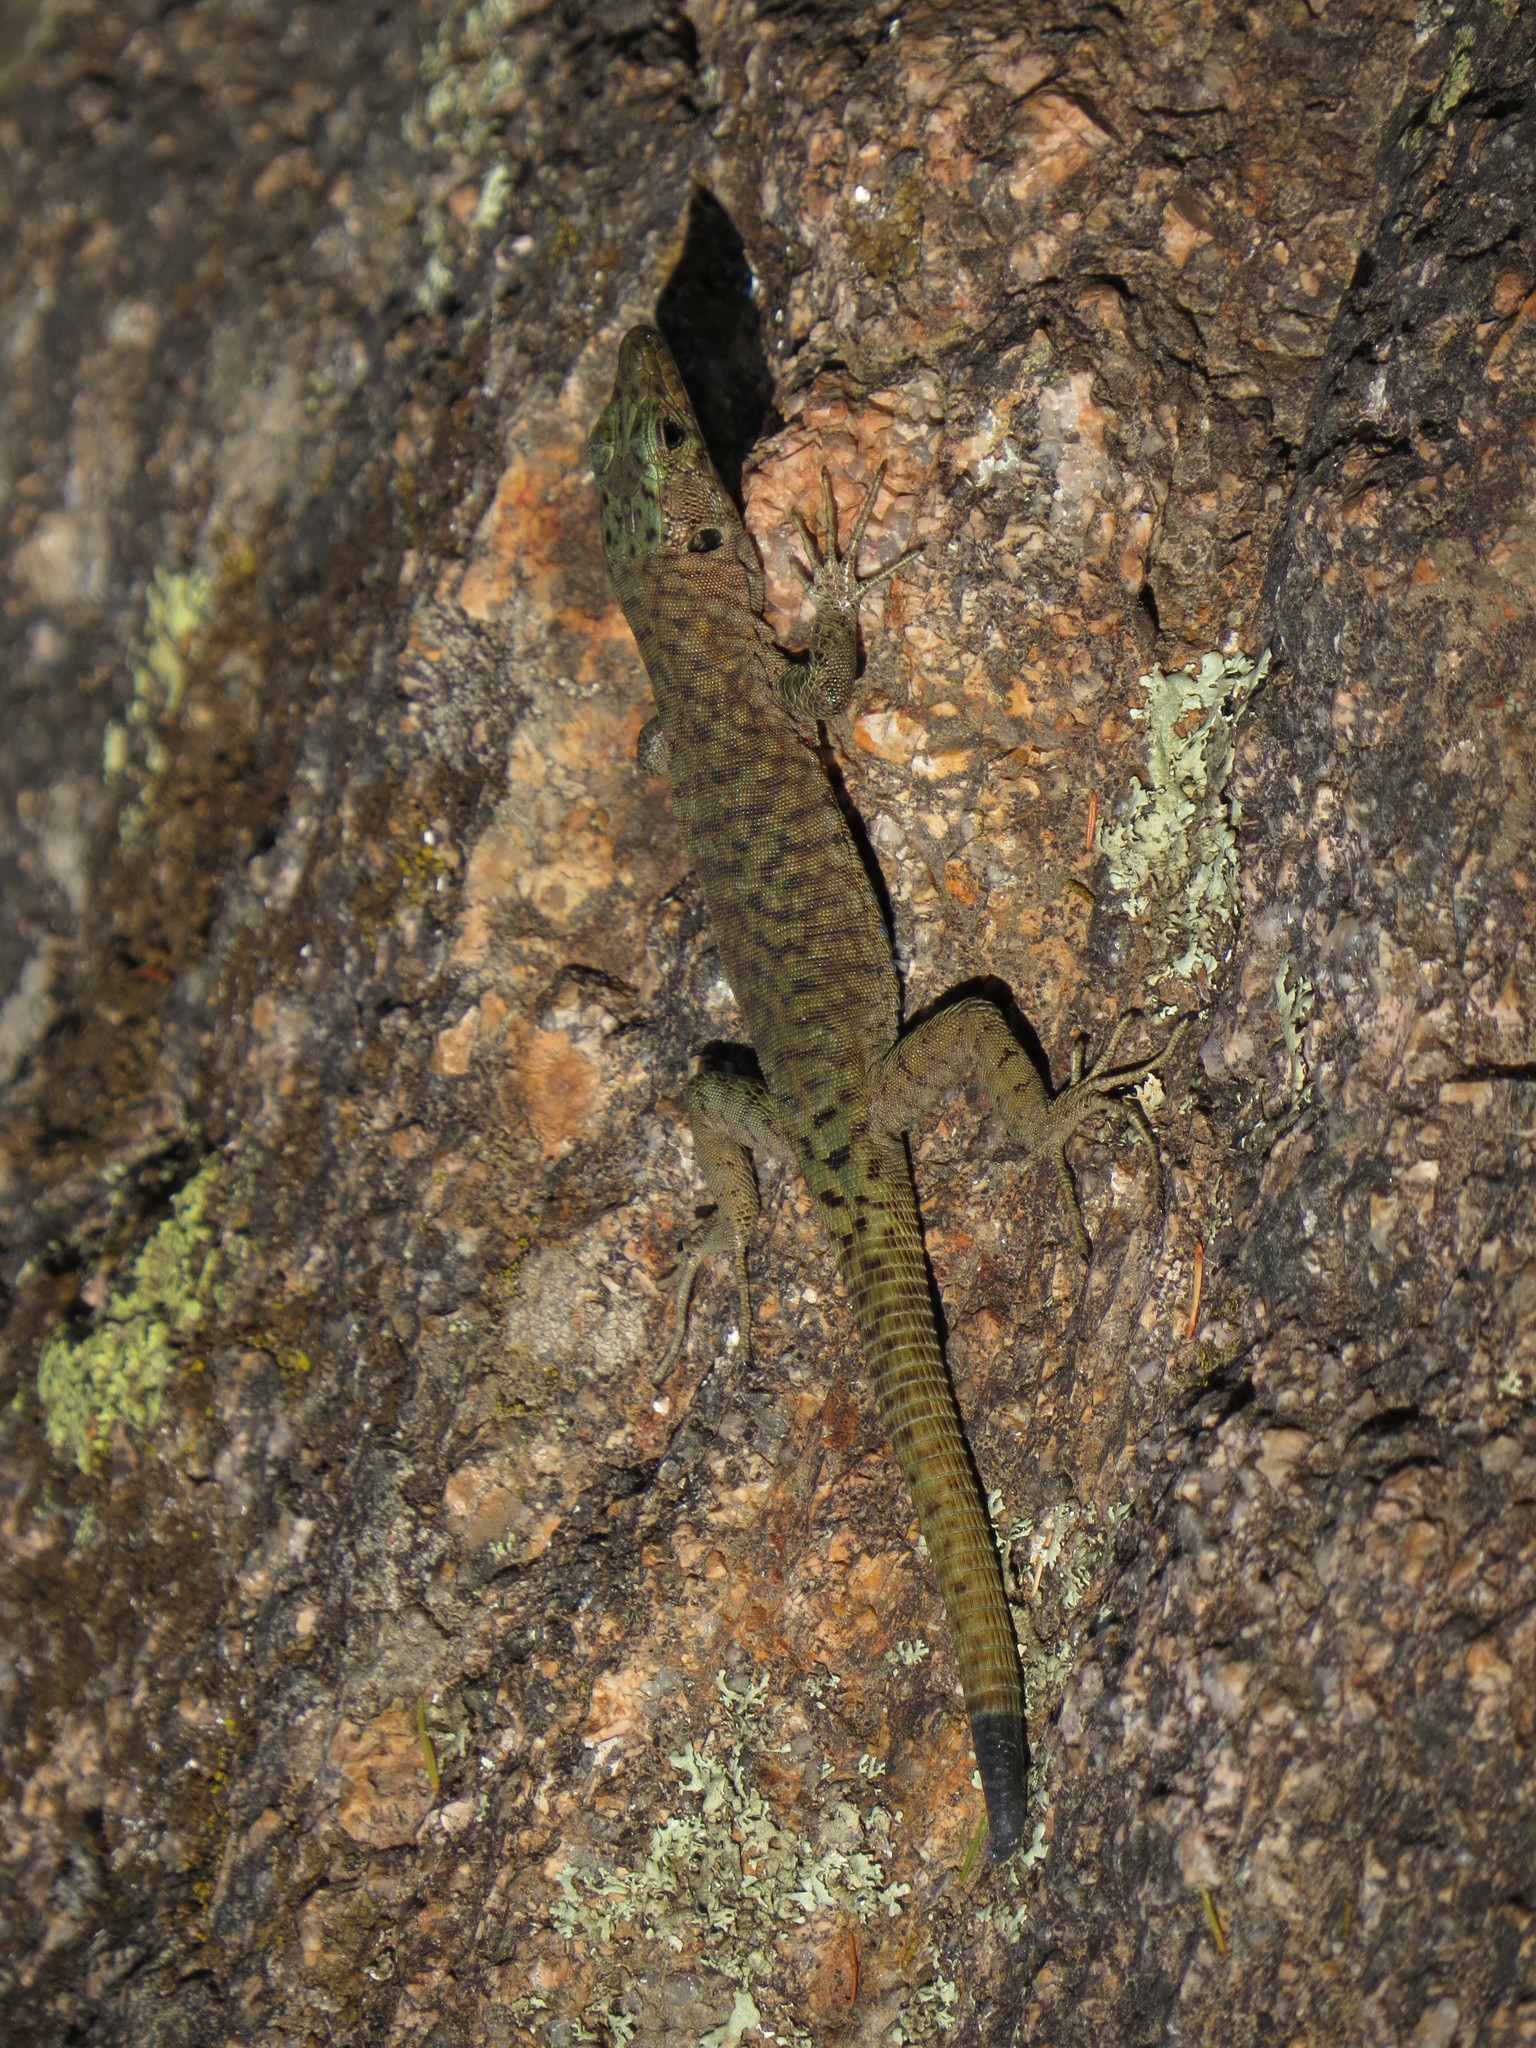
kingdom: Animalia
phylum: Chordata
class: Squamata
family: Lacertidae
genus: Archaeolacerta
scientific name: Archaeolacerta bedriagae
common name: Bedriaga's rock lizard
